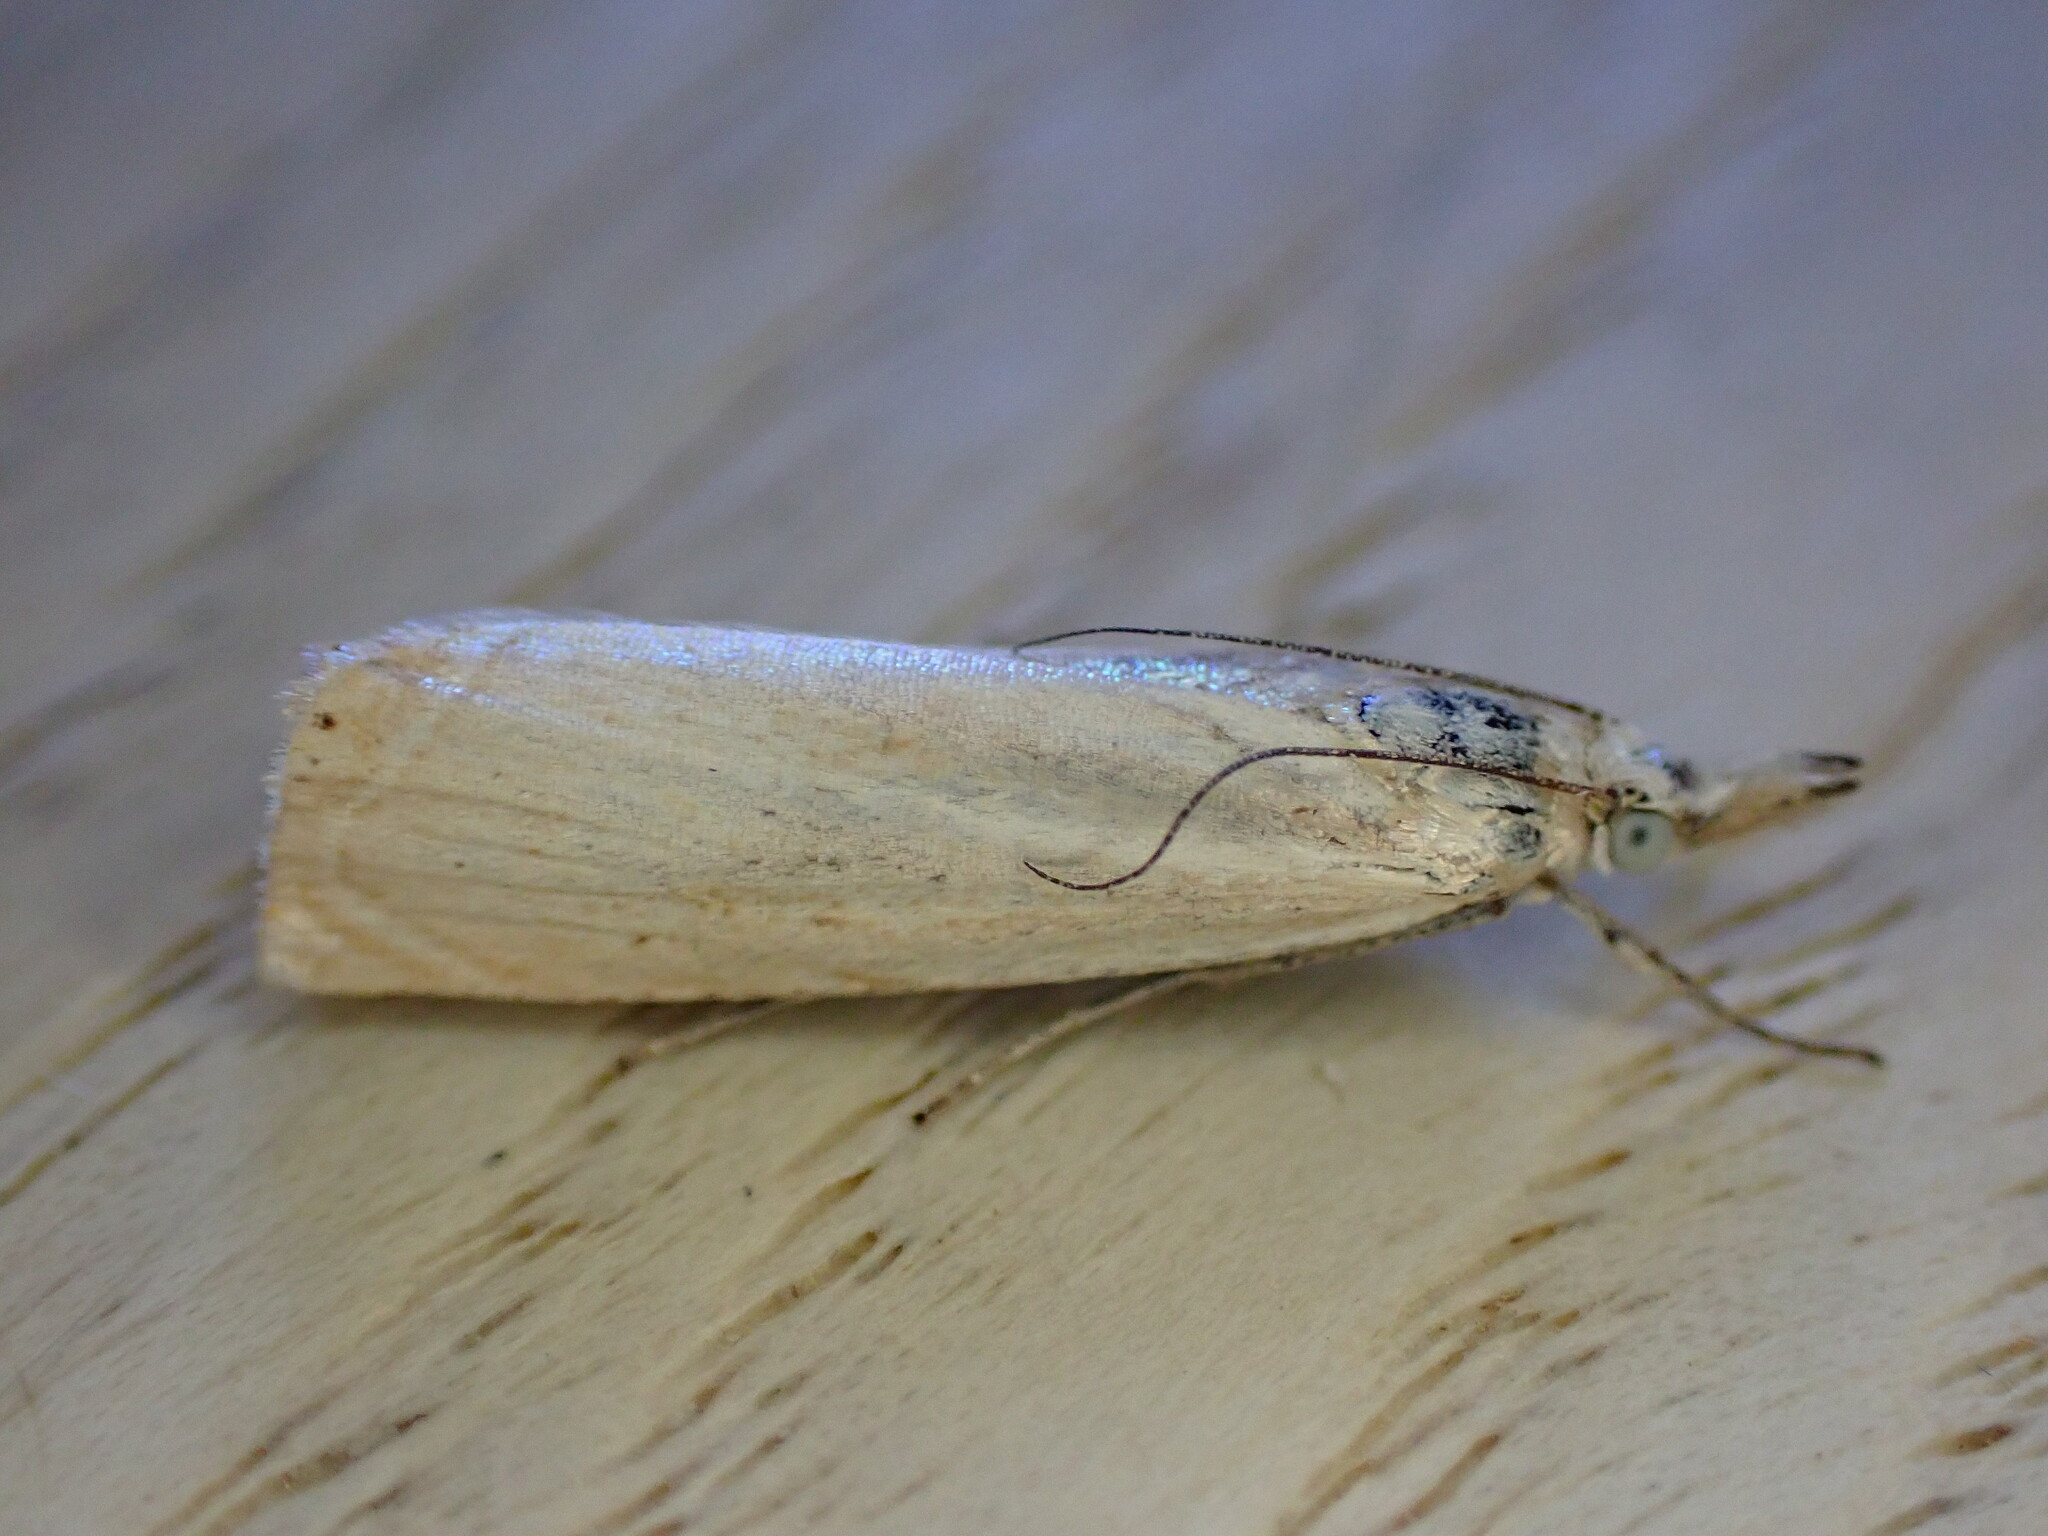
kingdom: Animalia
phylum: Arthropoda
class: Insecta
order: Lepidoptera
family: Crambidae
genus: Agriphila
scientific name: Agriphila straminella
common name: Straw grass-veneer
